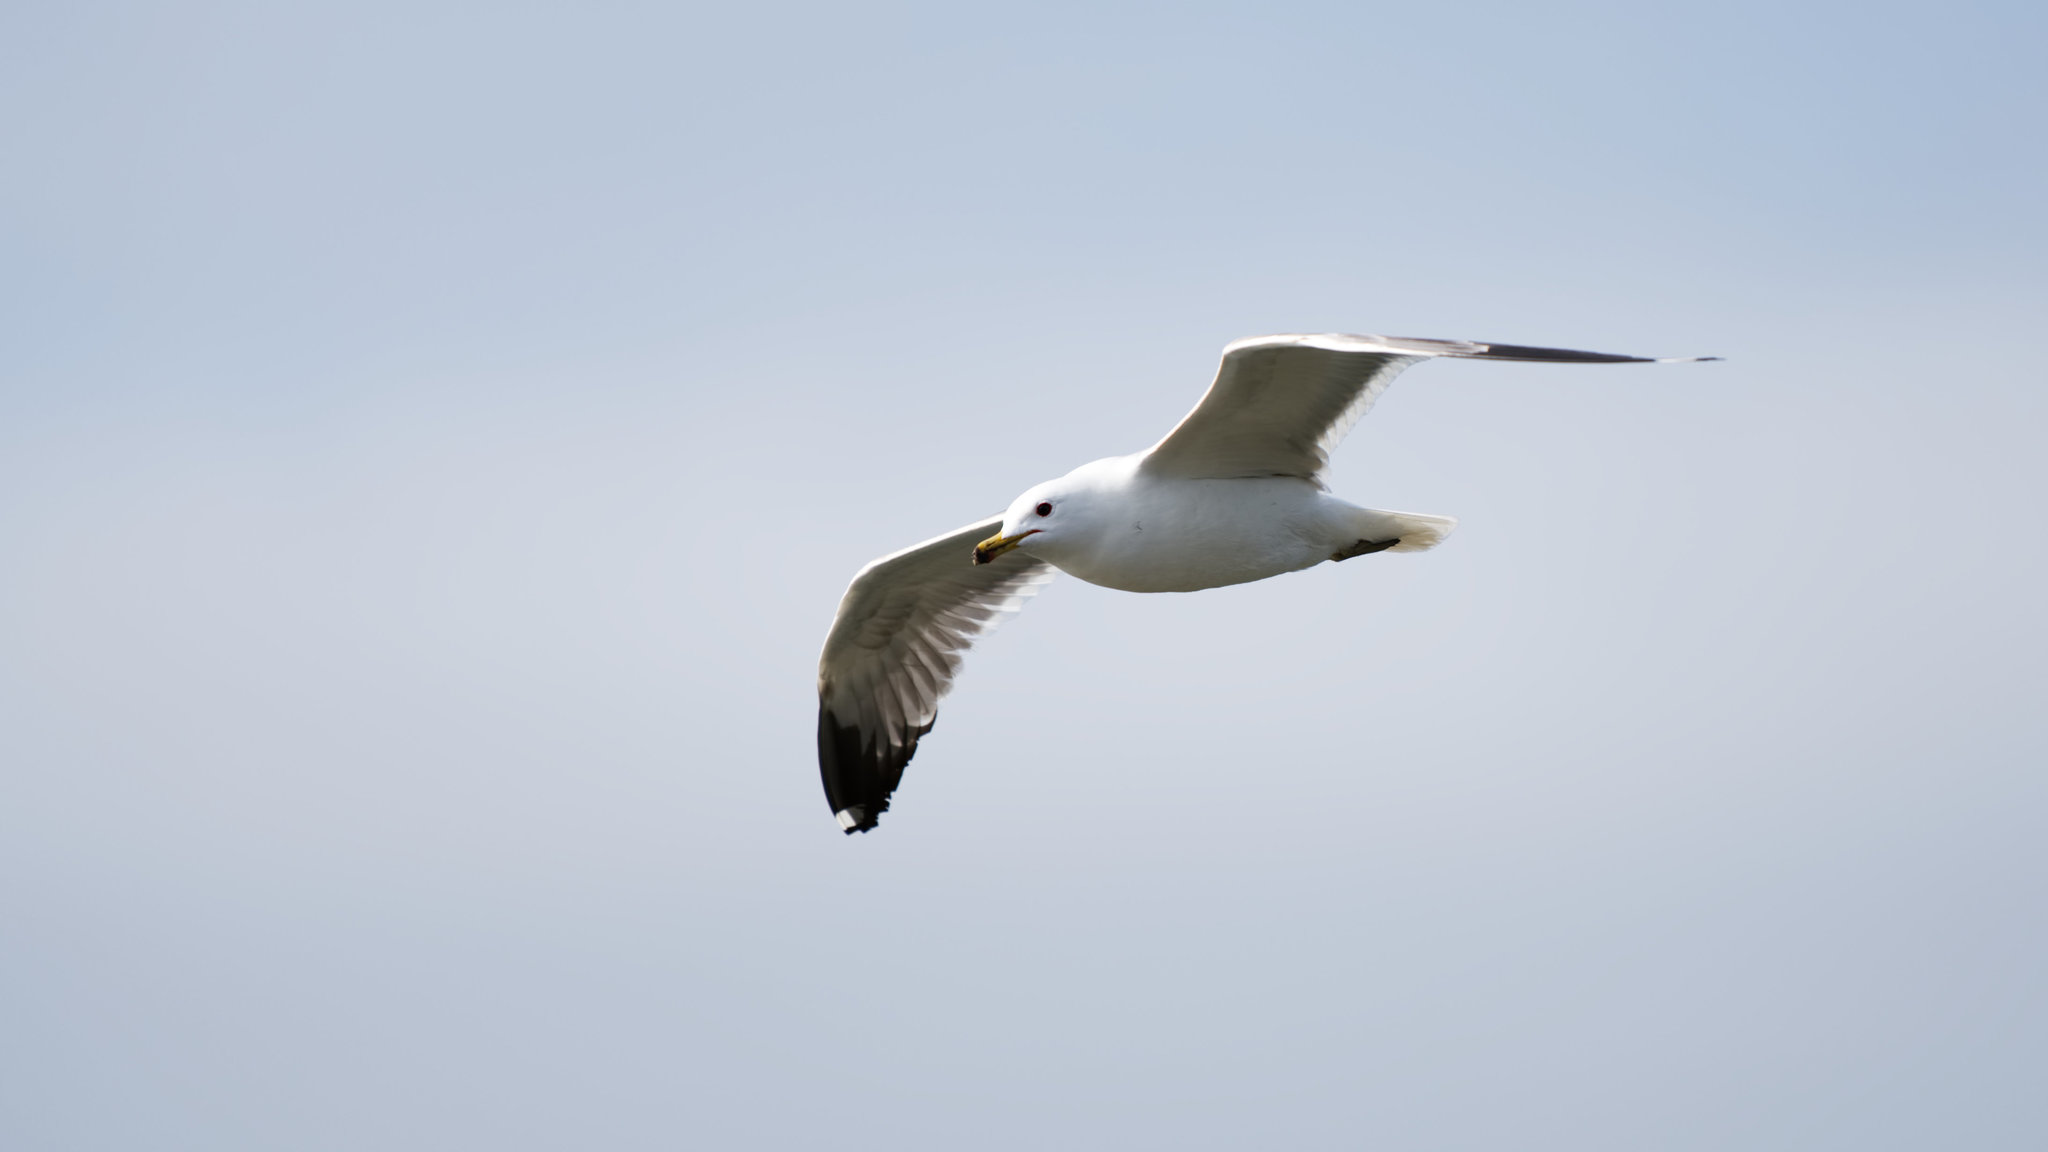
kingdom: Animalia
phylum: Chordata
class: Aves
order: Charadriiformes
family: Laridae
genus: Larus
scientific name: Larus californicus
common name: California gull
